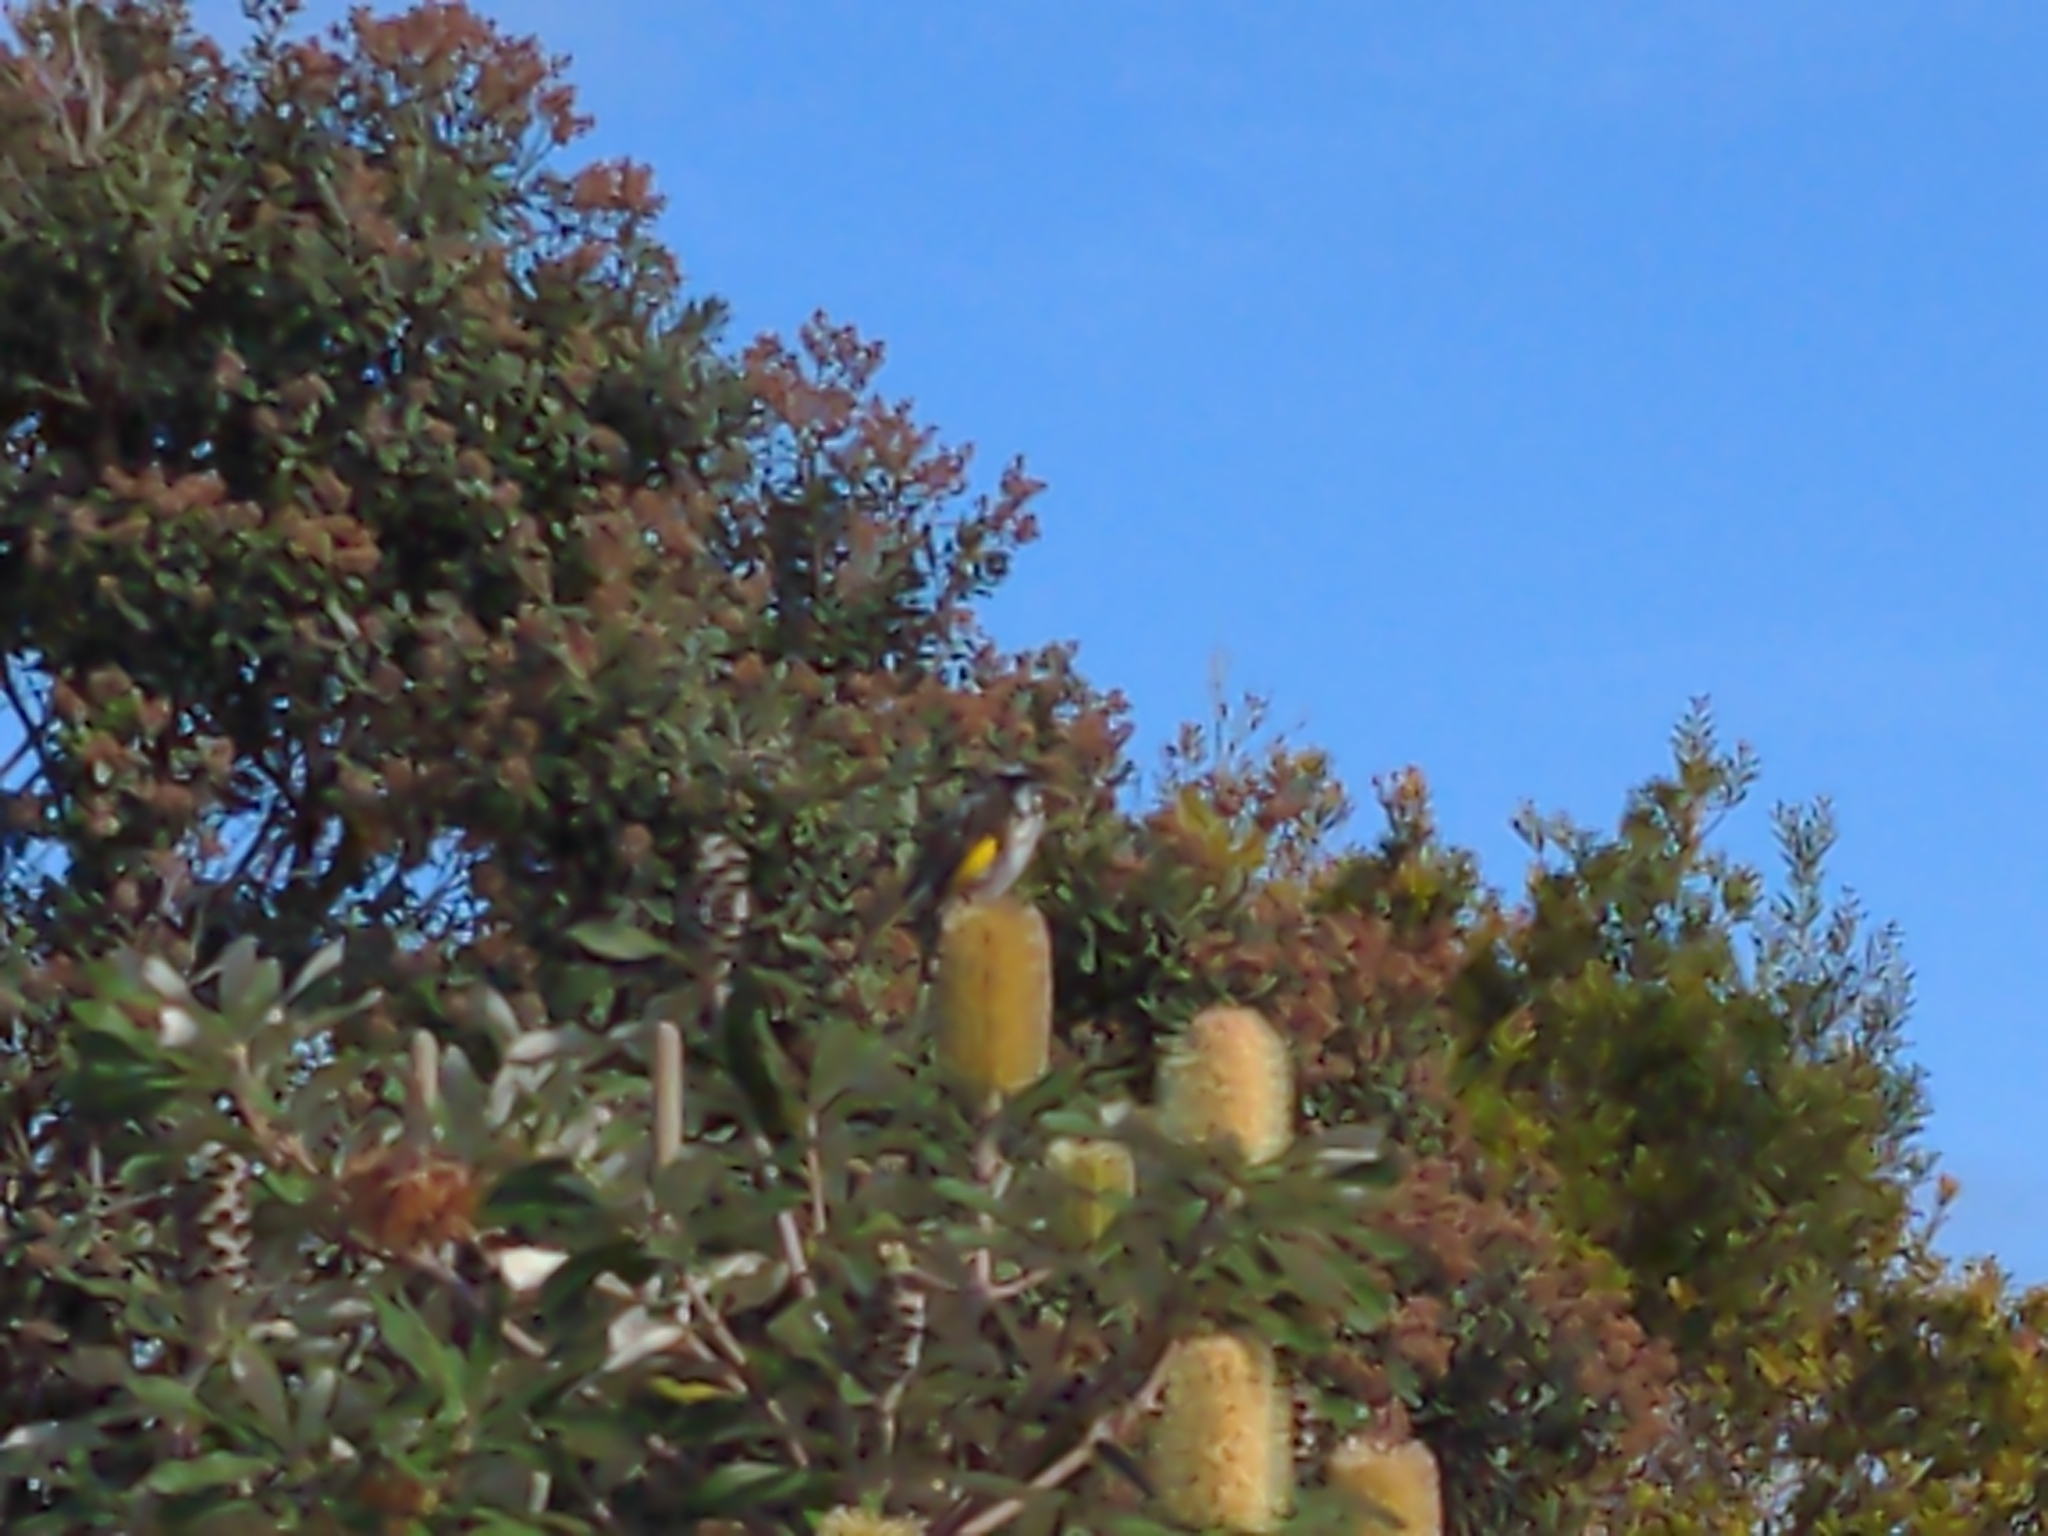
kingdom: Animalia
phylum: Chordata
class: Aves
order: Passeriformes
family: Meliphagidae
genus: Phylidonyris
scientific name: Phylidonyris novaehollandiae
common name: New holland honeyeater
